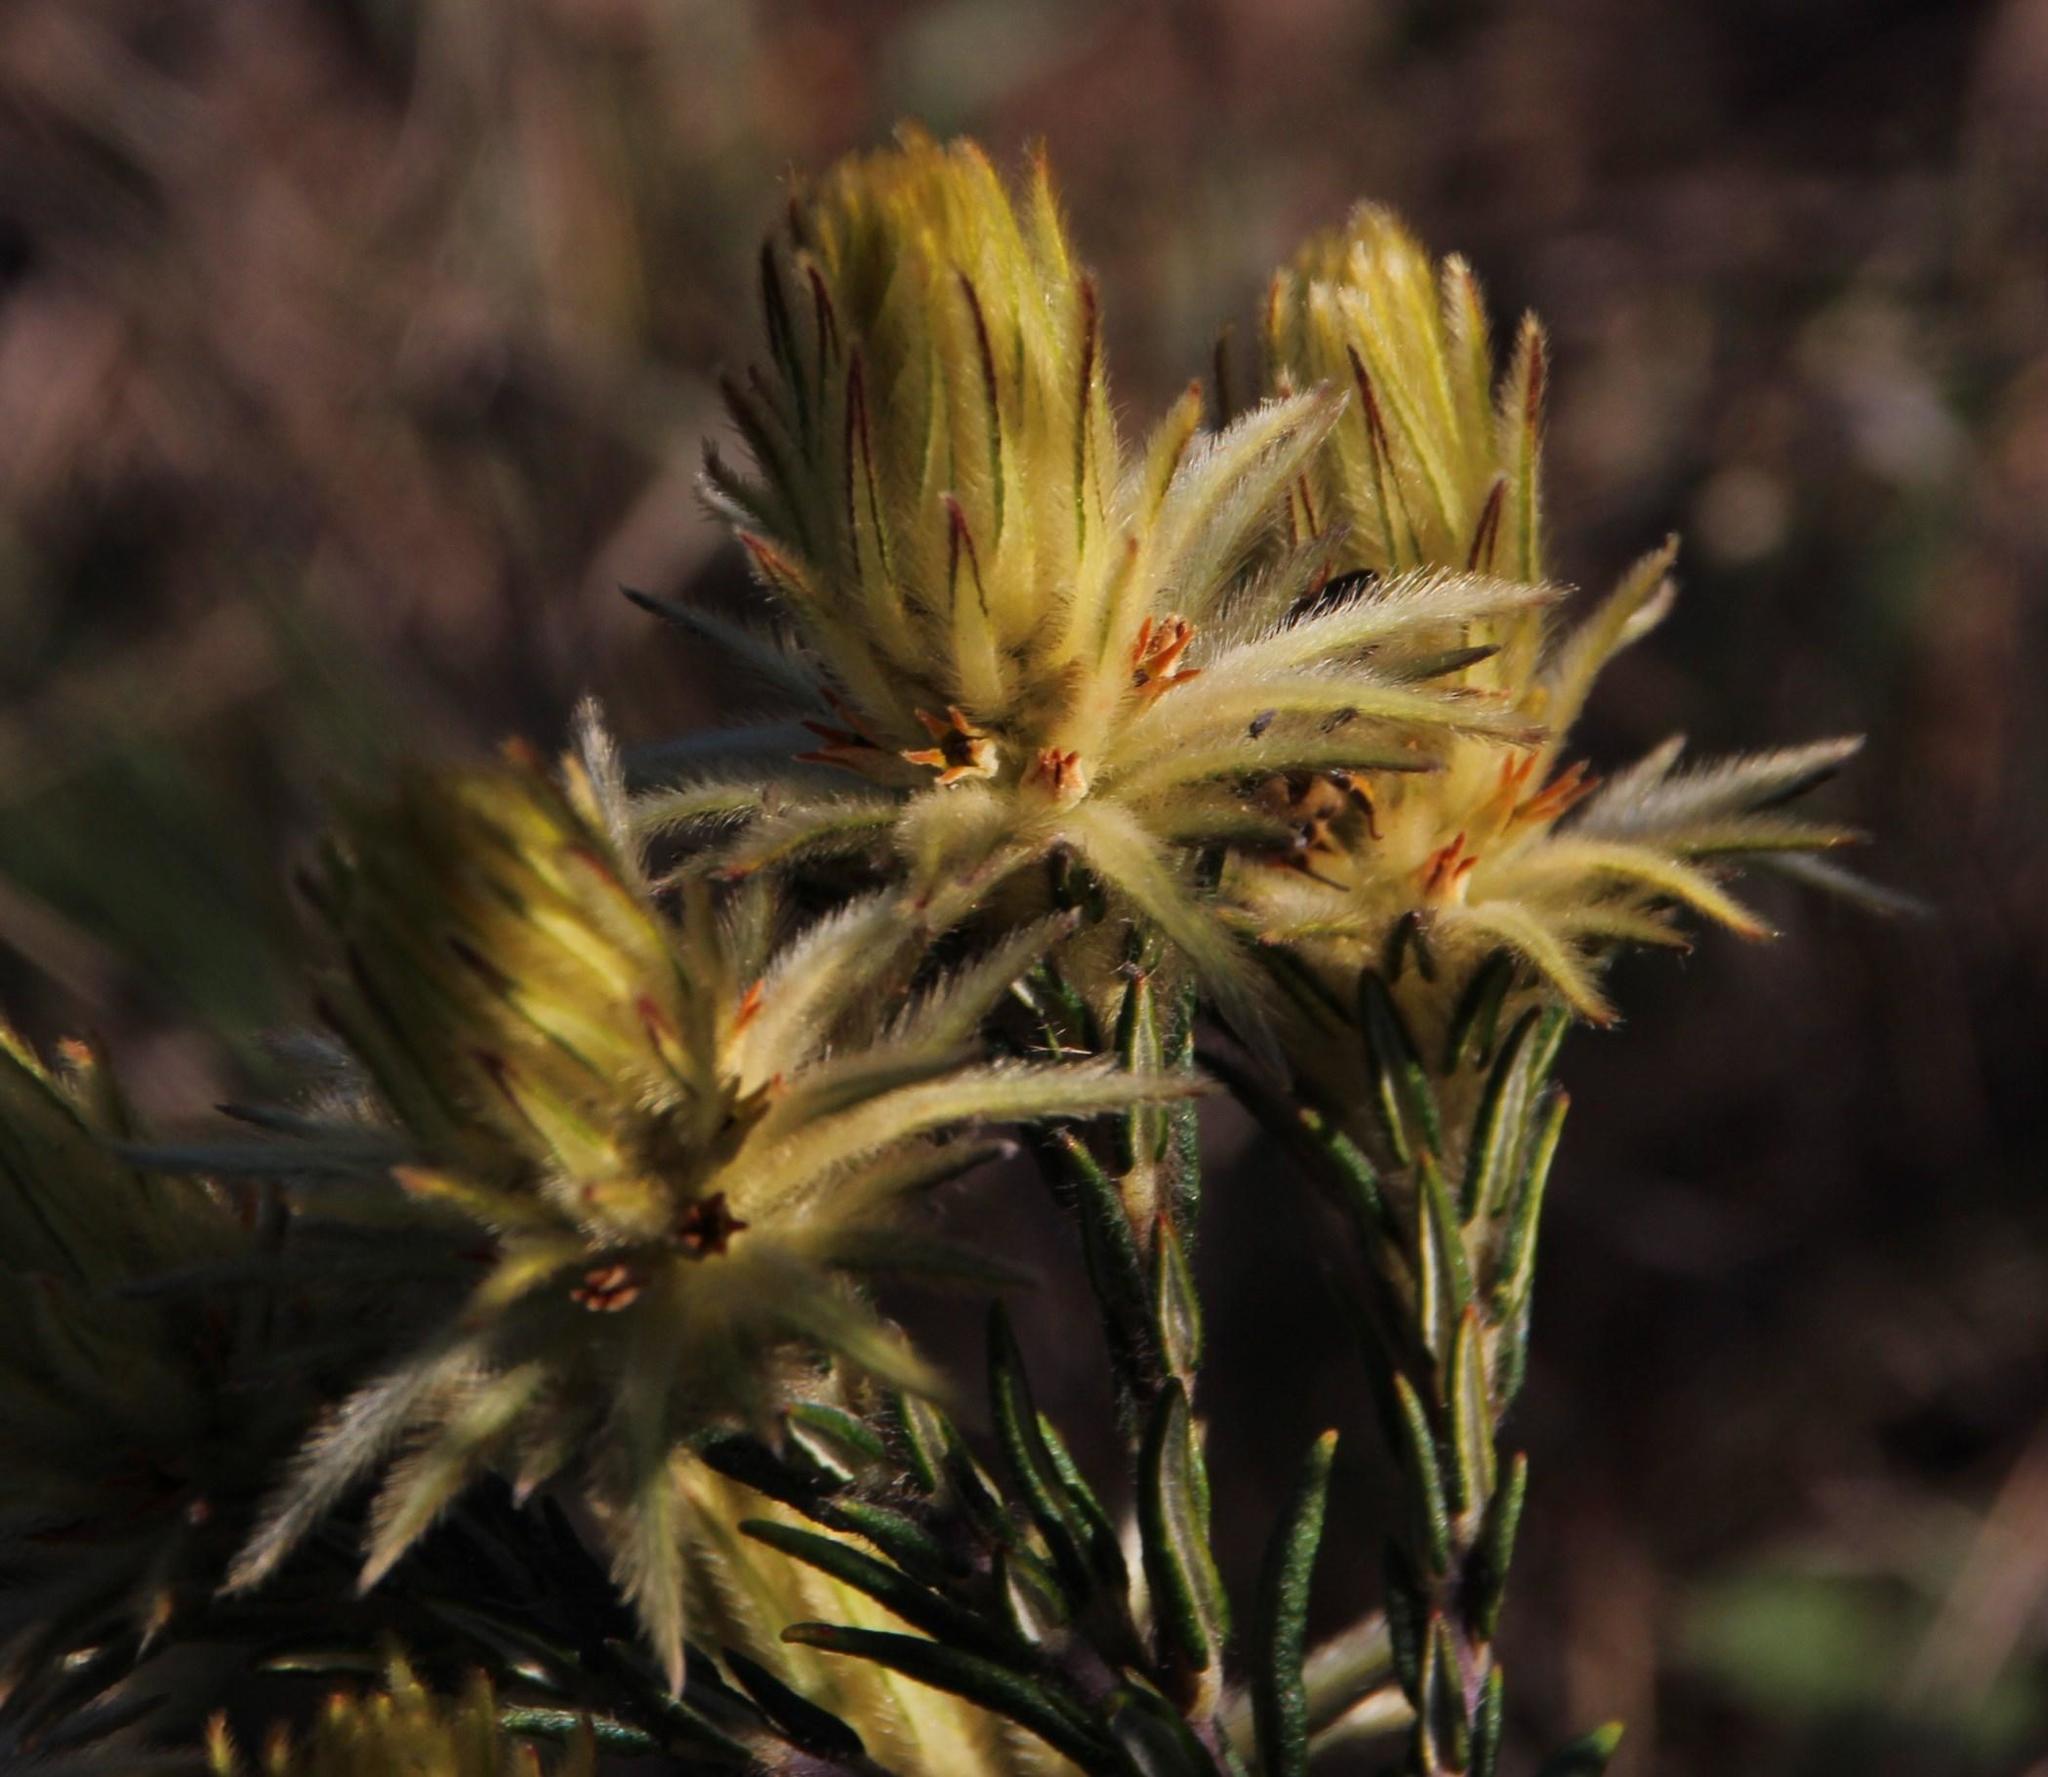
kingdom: Plantae
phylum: Tracheophyta
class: Magnoliopsida
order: Rosales
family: Rhamnaceae
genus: Phylica
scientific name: Phylica plumosa
